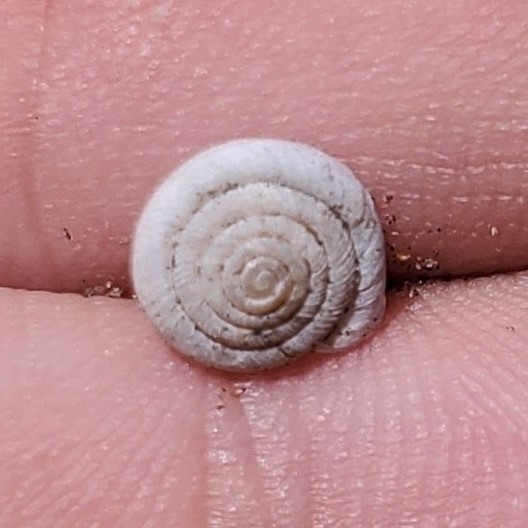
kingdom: Animalia
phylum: Mollusca
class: Gastropoda
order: Stylommatophora
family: Polygyridae
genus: Polygyra
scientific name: Polygyra cereolus
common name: Southern flatcone snail
